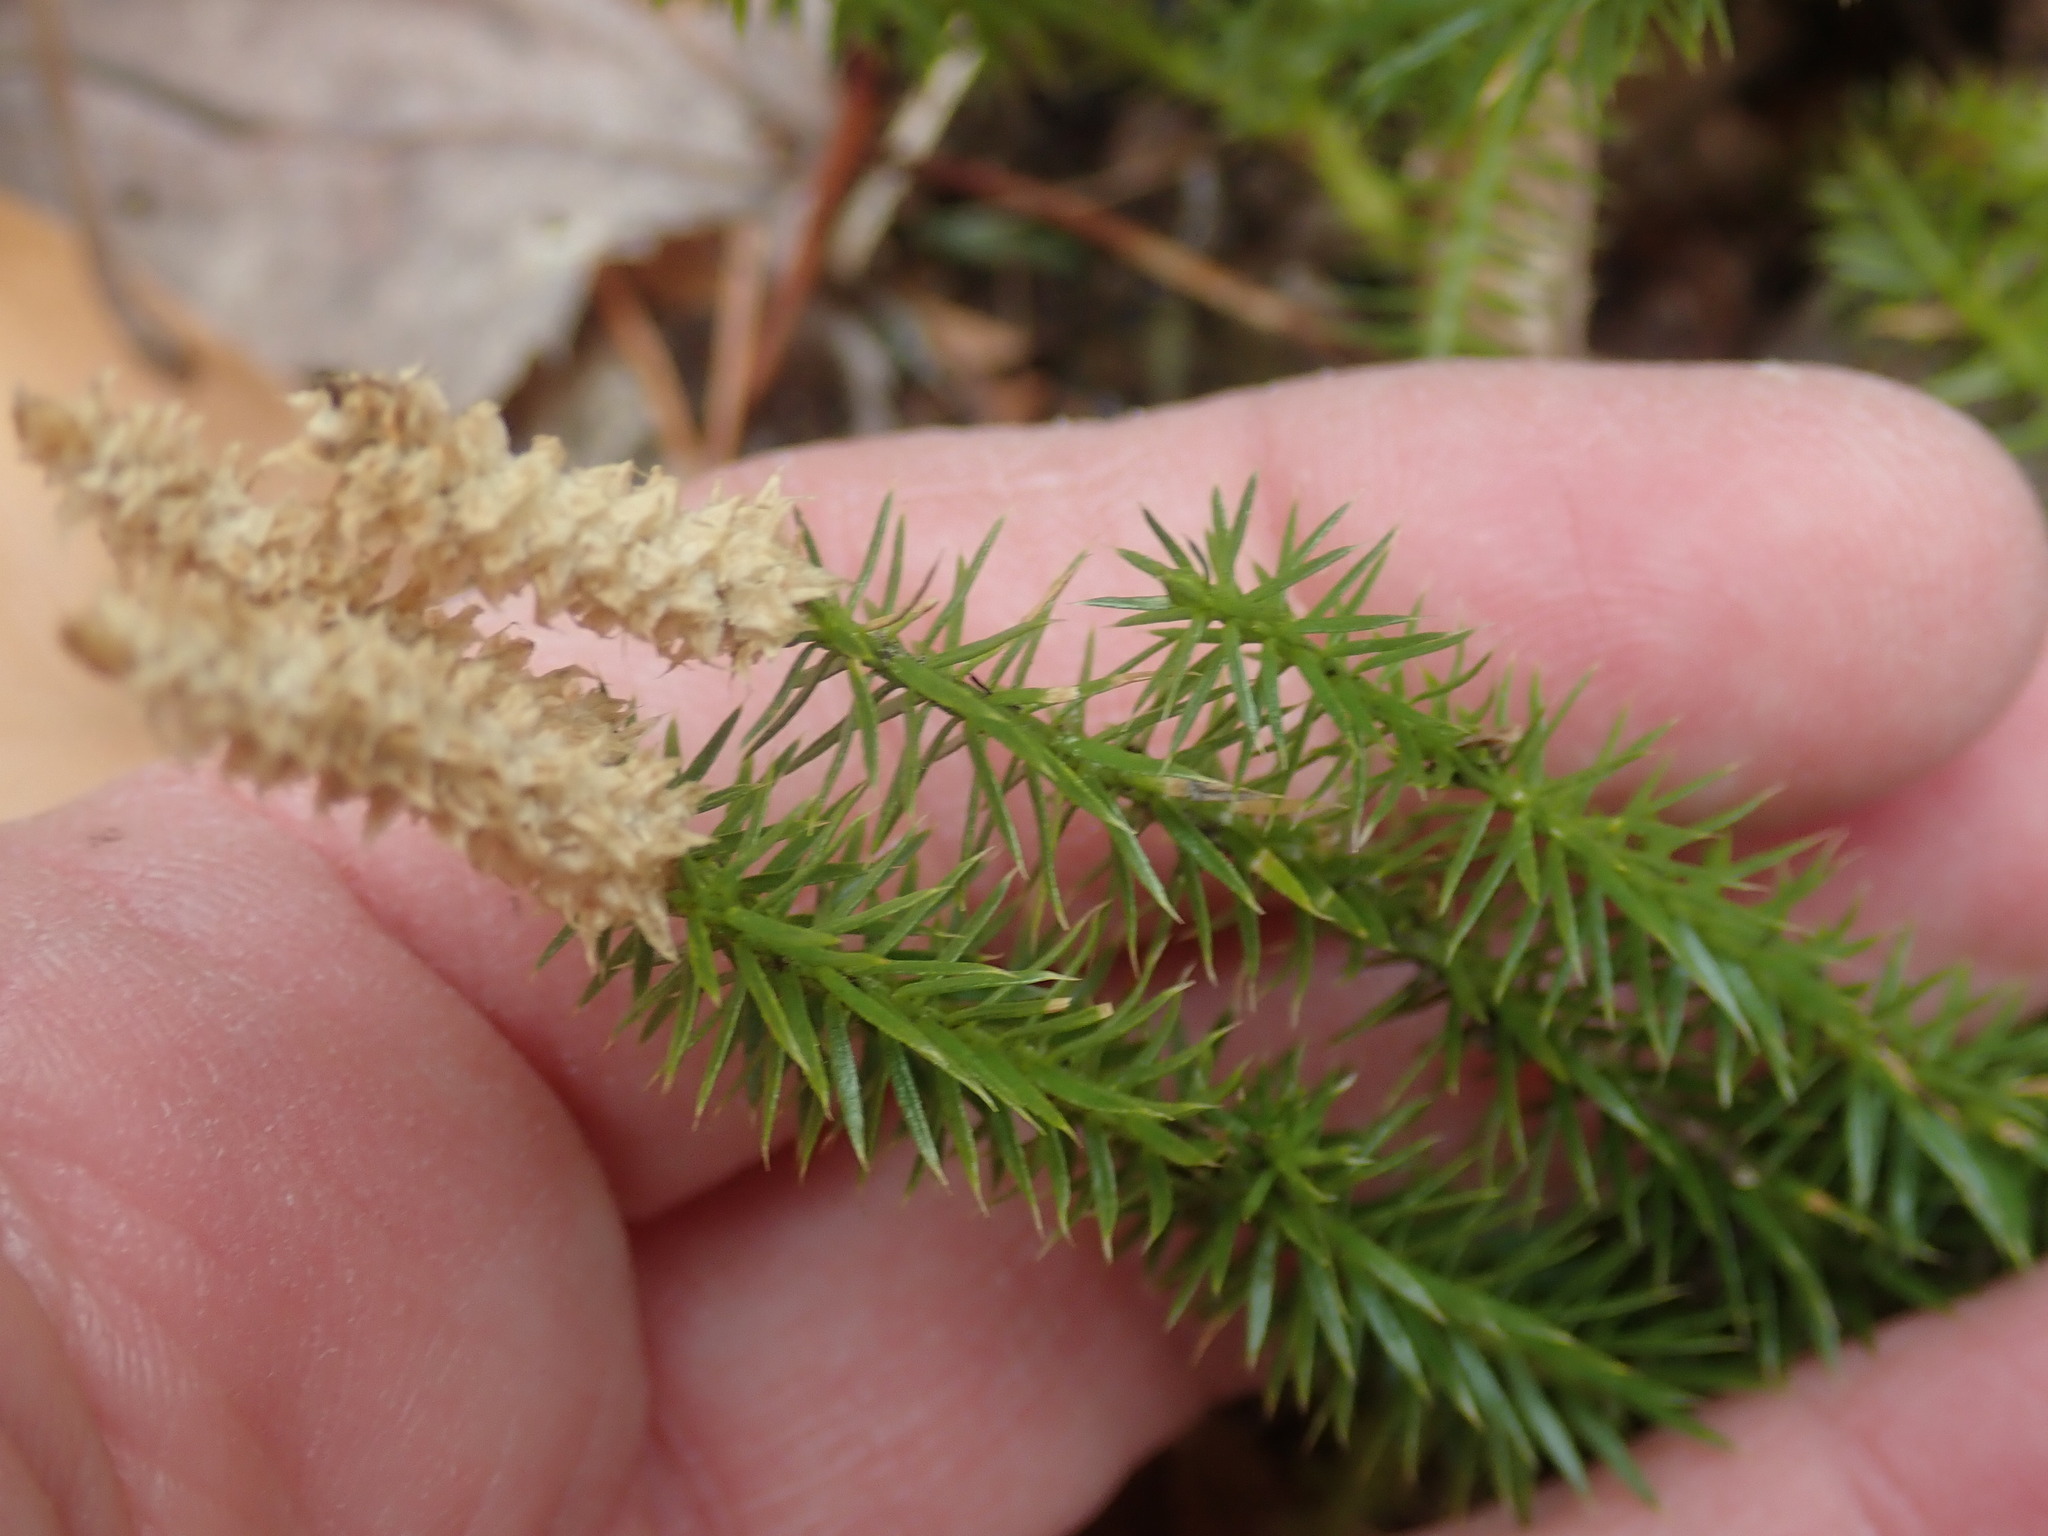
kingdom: Plantae
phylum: Tracheophyta
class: Lycopodiopsida
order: Lycopodiales
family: Lycopodiaceae
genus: Spinulum
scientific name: Spinulum annotinum
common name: Interrupted club-moss
